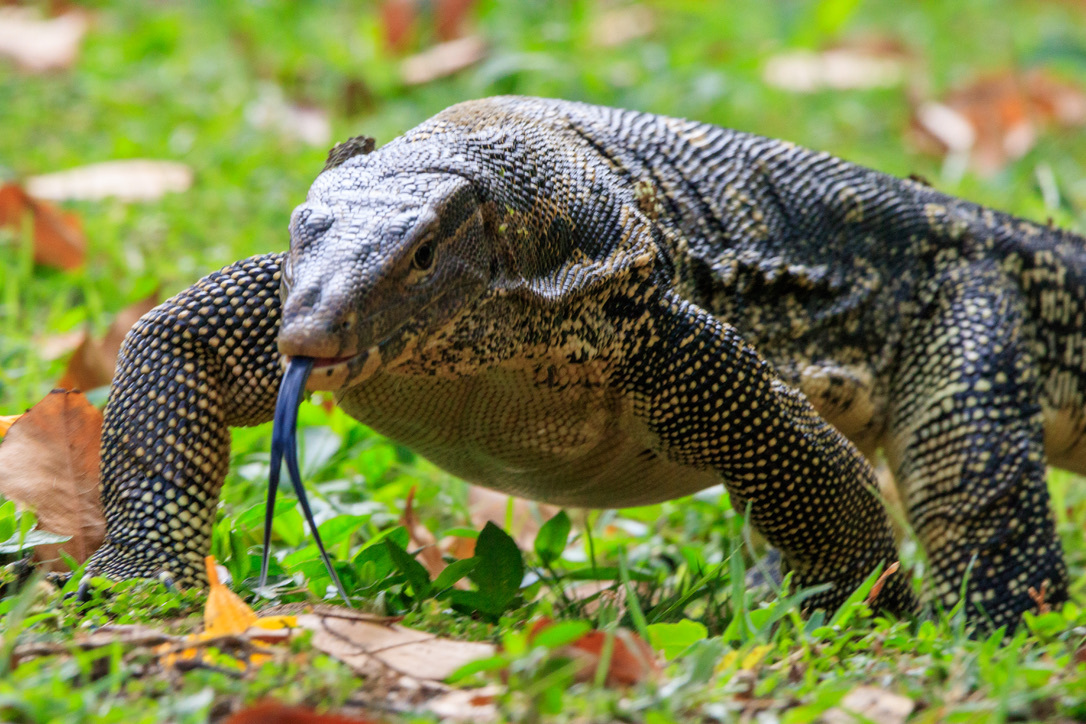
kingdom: Animalia
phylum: Chordata
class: Squamata
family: Varanidae
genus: Varanus
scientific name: Varanus salvator
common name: Common water monitor
